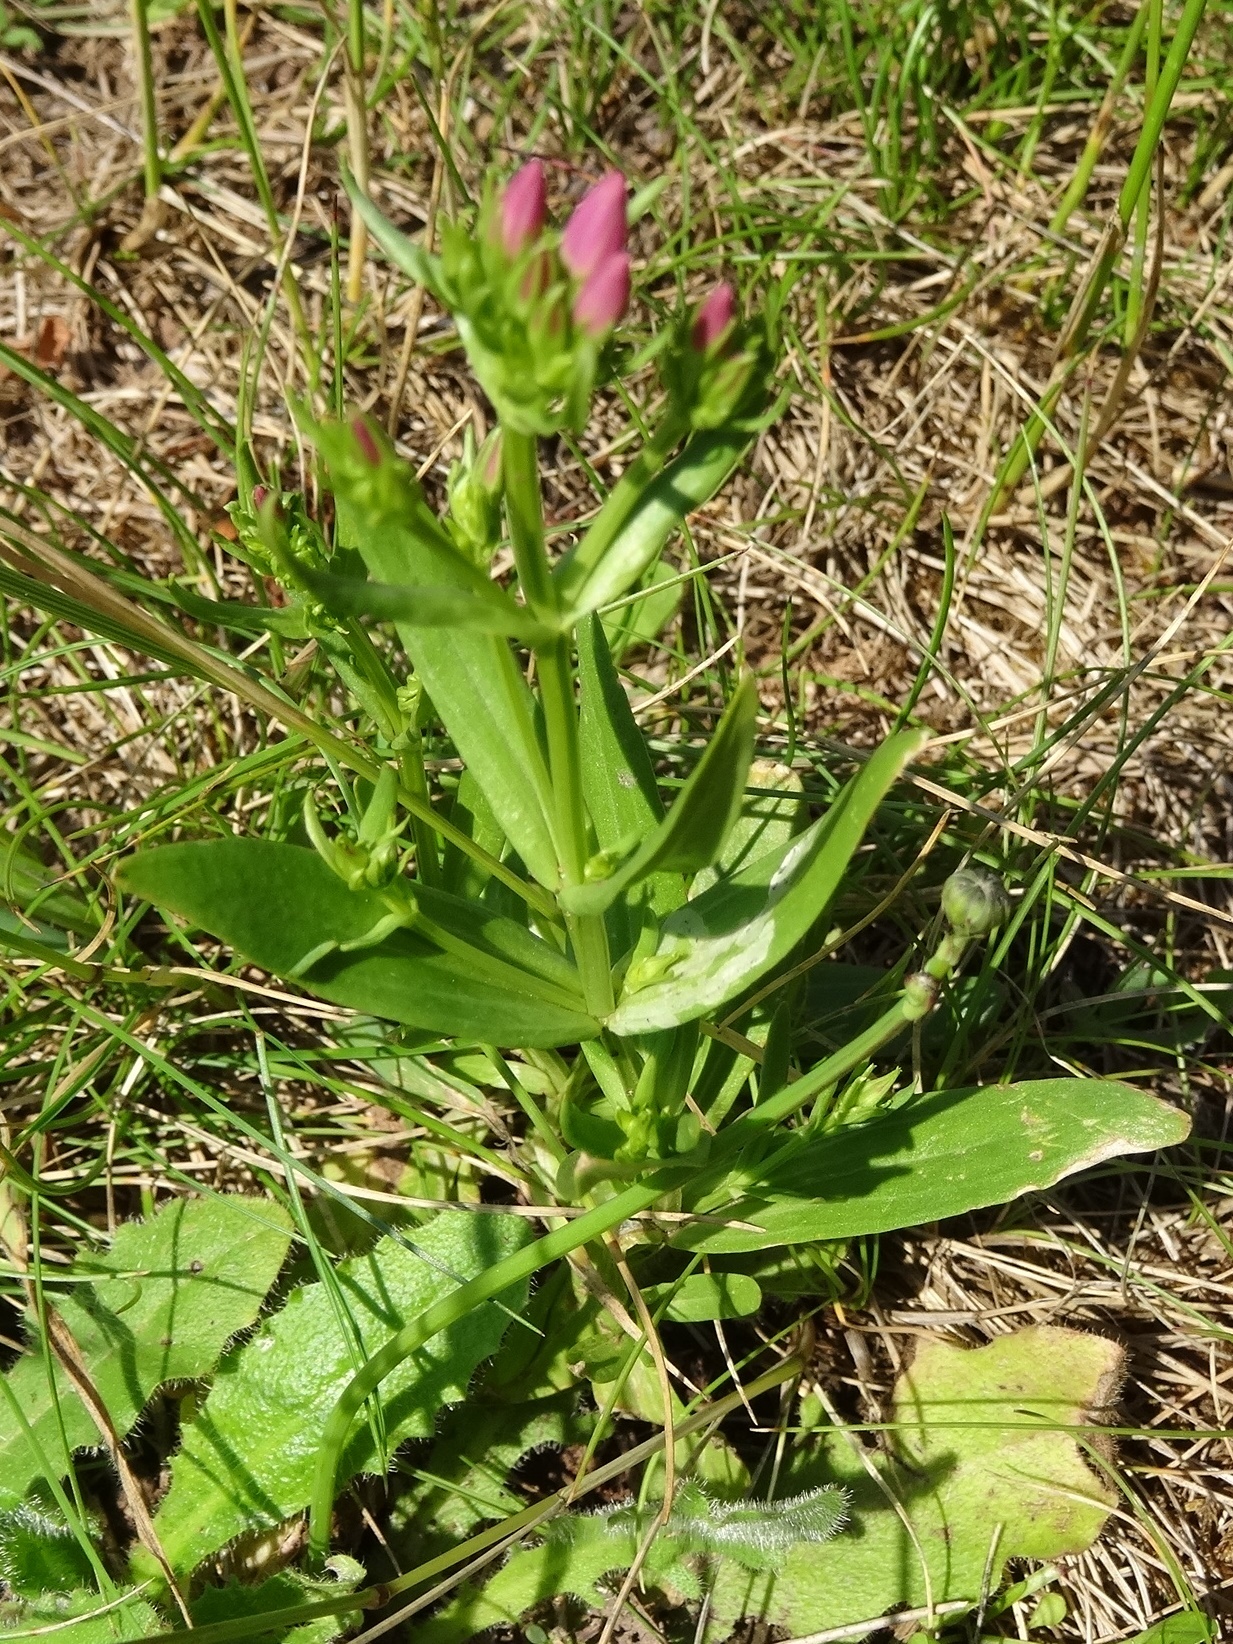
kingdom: Plantae
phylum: Tracheophyta
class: Magnoliopsida
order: Gentianales
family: Gentianaceae
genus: Centaurium
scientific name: Centaurium erythraea
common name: Common centaury
